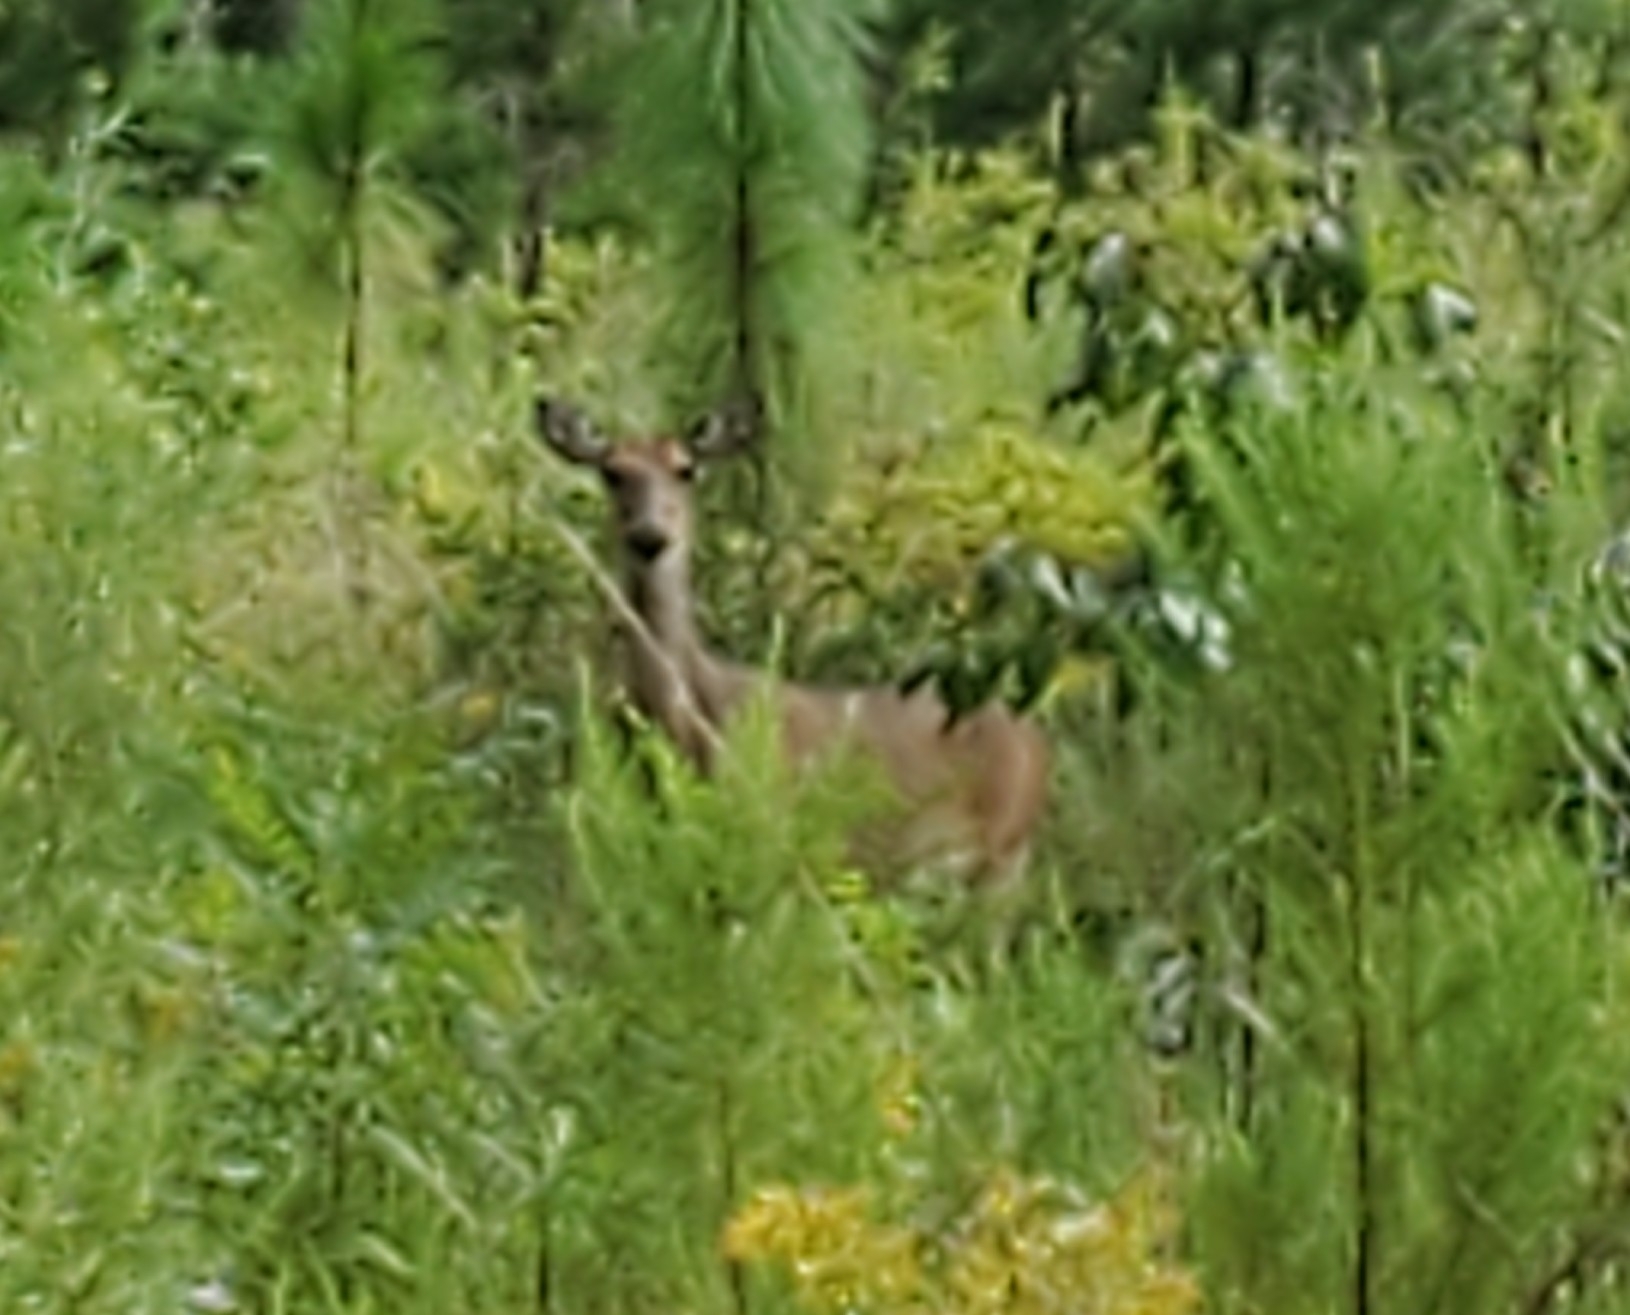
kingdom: Animalia
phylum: Chordata
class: Mammalia
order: Artiodactyla
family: Cervidae
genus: Odocoileus
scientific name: Odocoileus virginianus
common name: White-tailed deer
